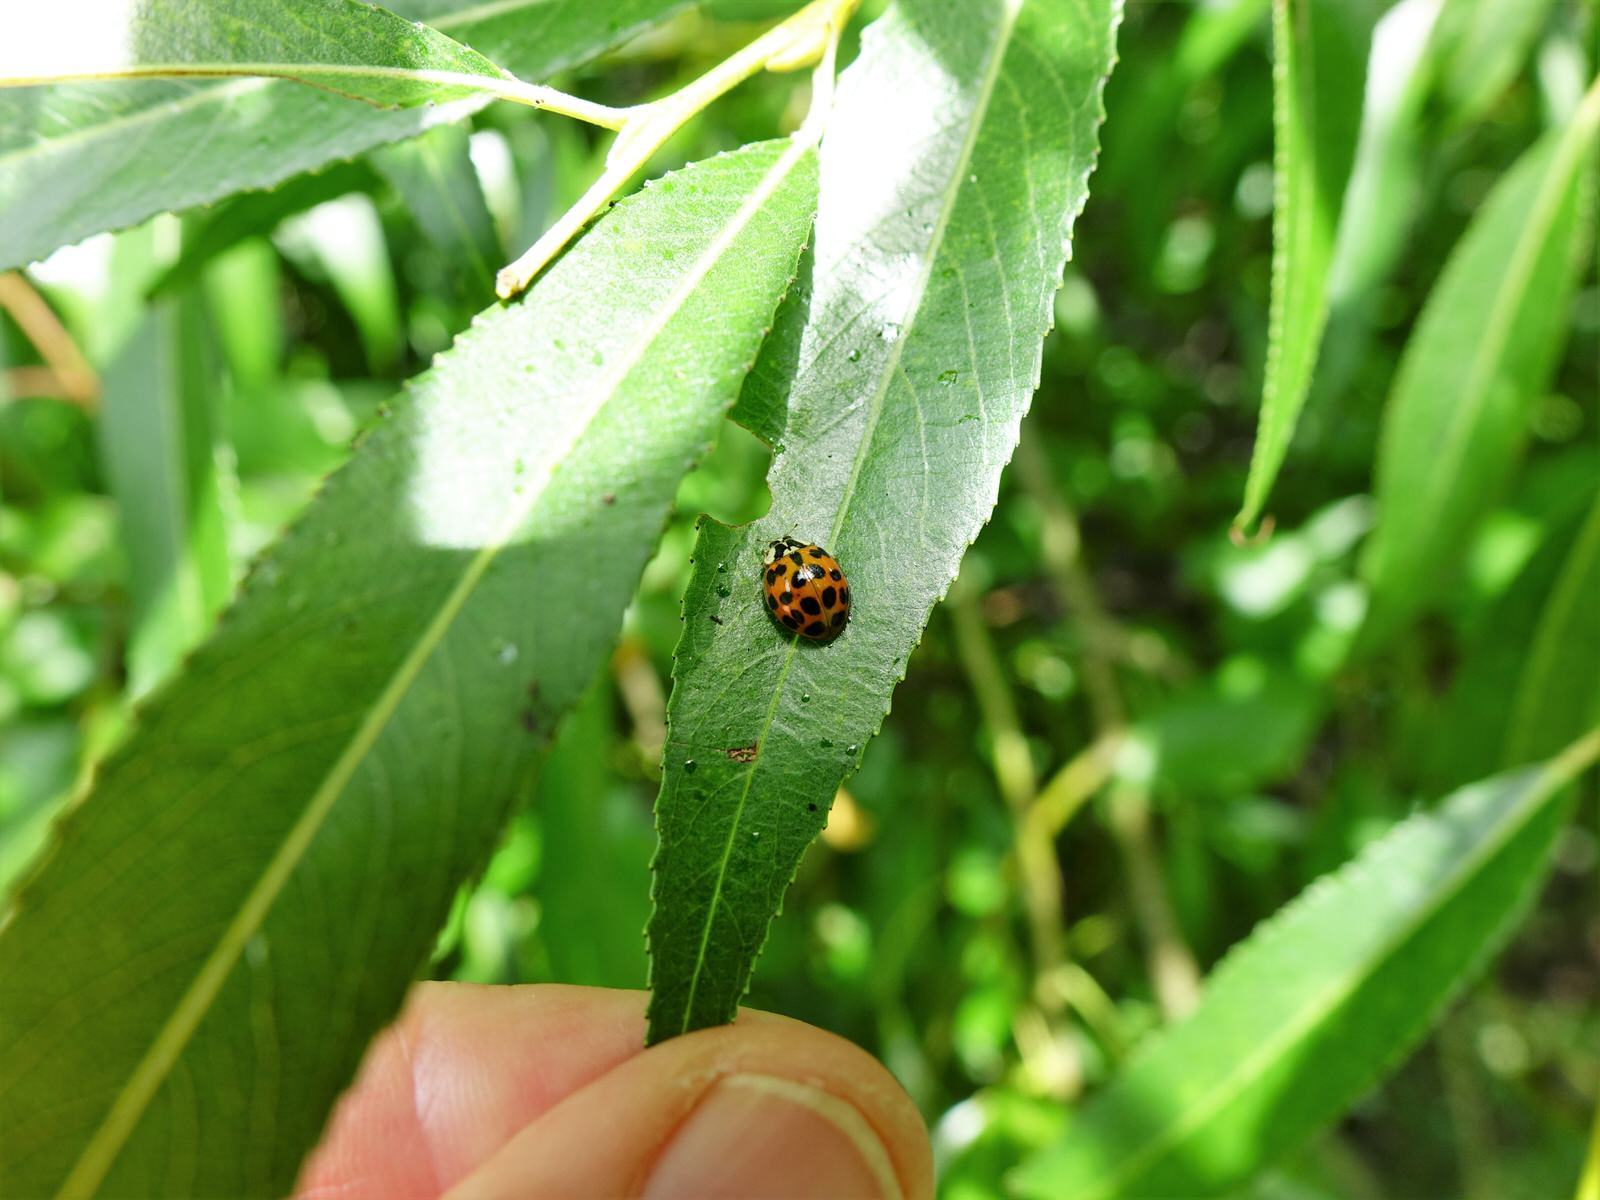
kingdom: Animalia
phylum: Arthropoda
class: Insecta
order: Coleoptera
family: Coccinellidae
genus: Harmonia
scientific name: Harmonia axyridis
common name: Harlequin ladybird
